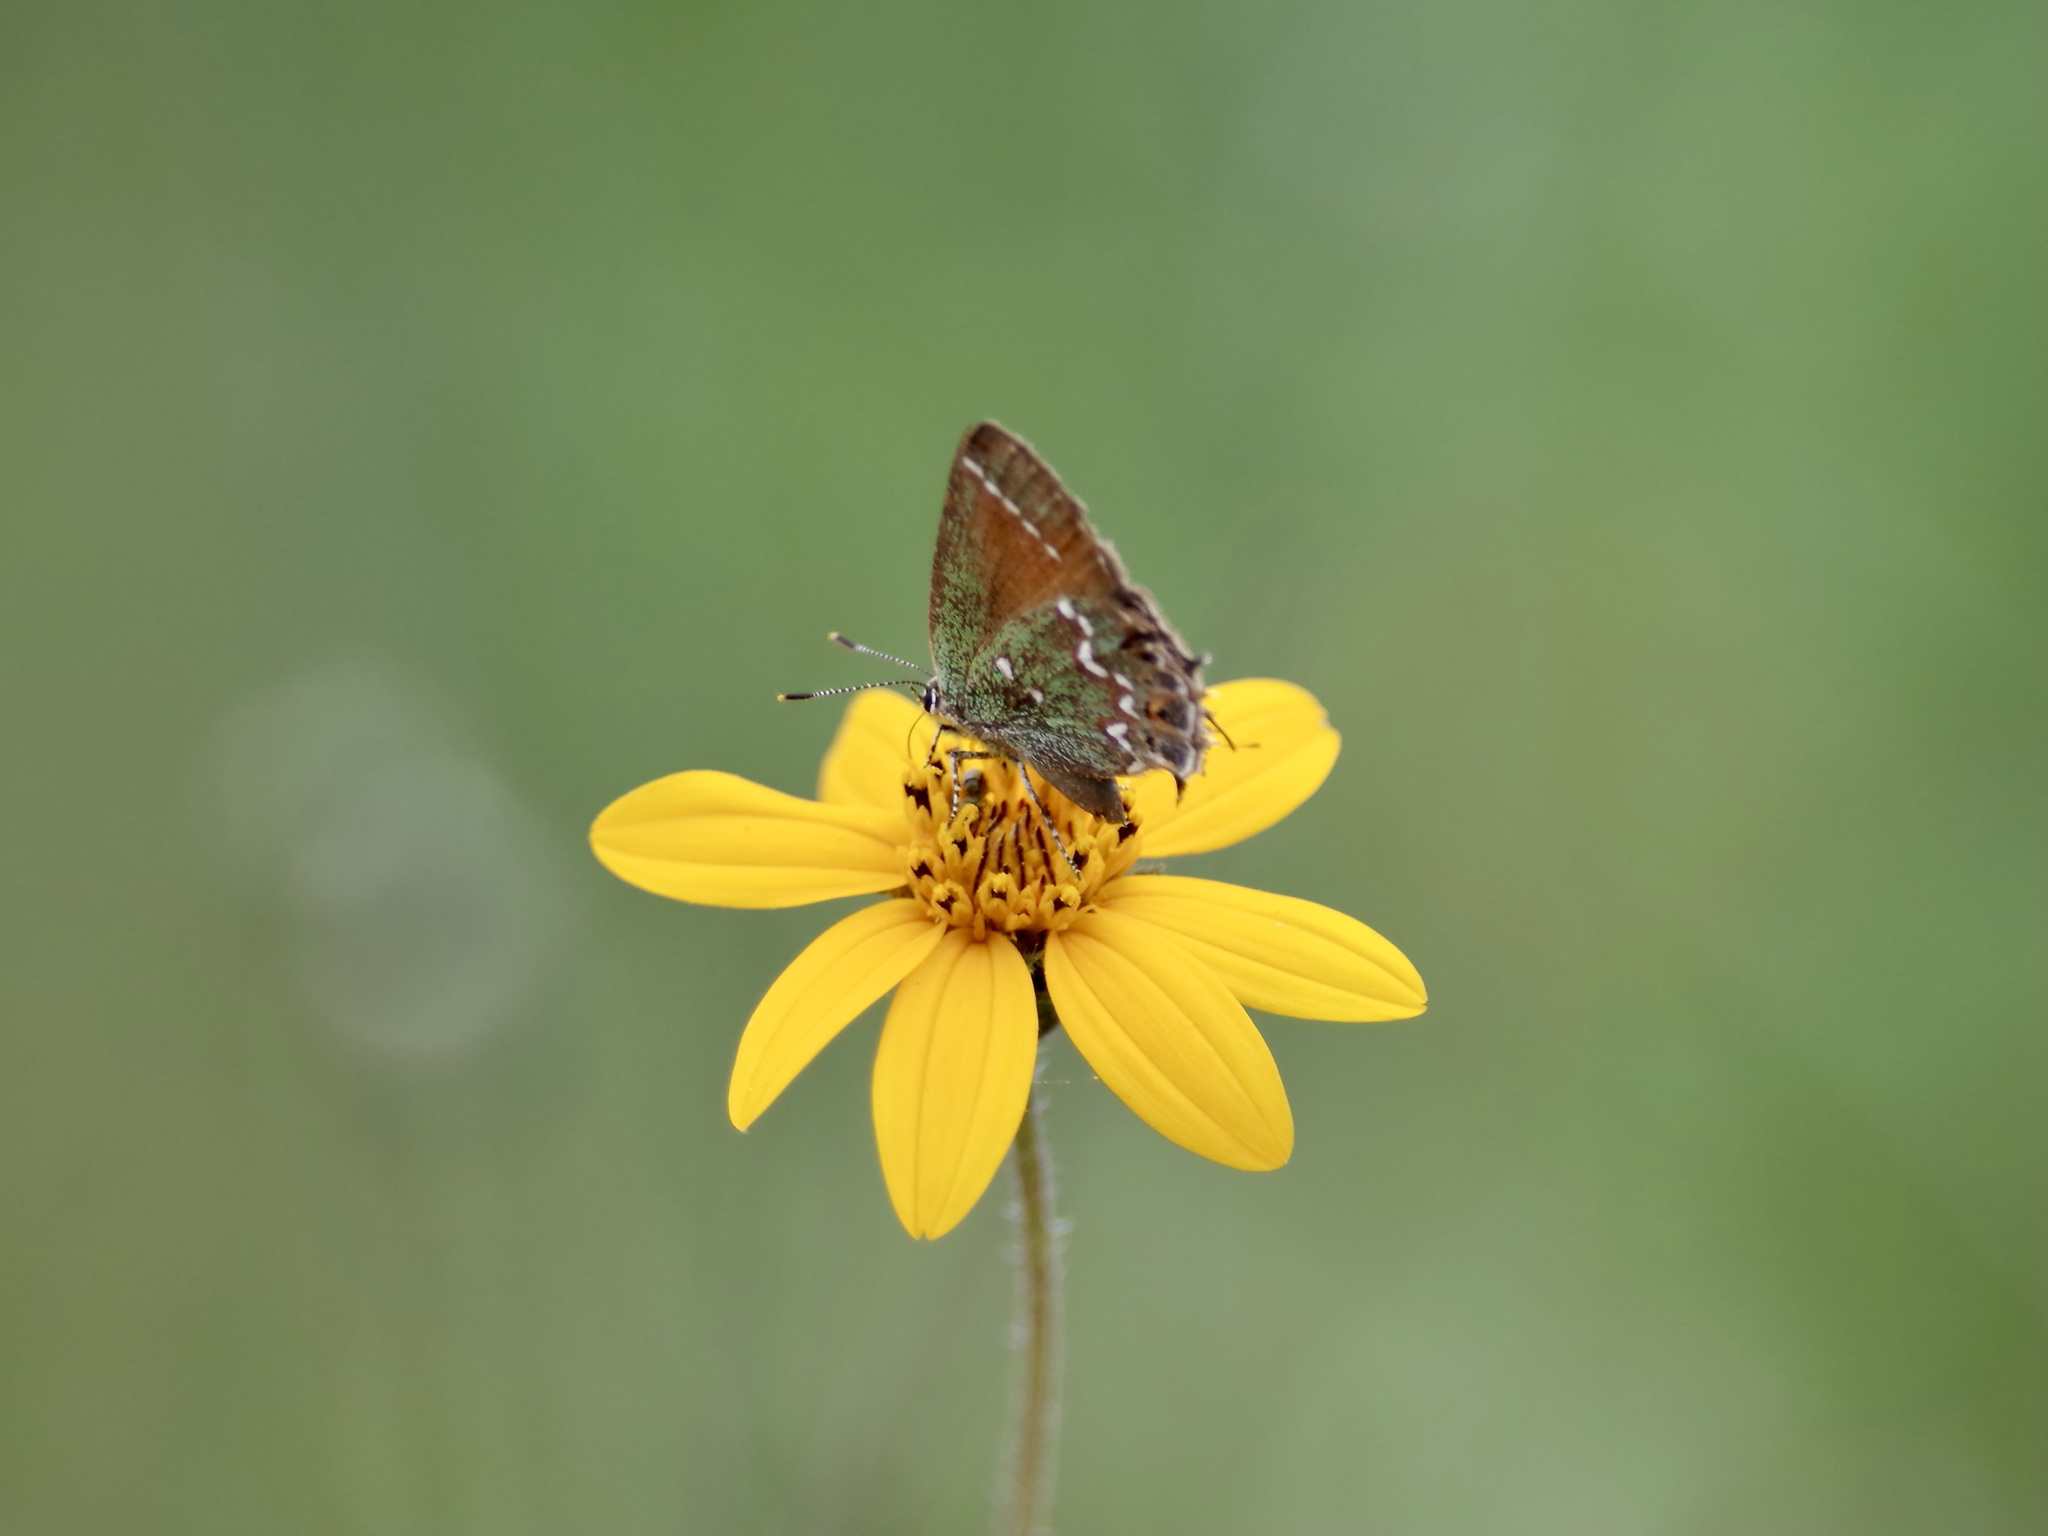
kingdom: Animalia
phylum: Arthropoda
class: Insecta
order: Lepidoptera
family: Lycaenidae
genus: Mitoura
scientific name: Mitoura gryneus
